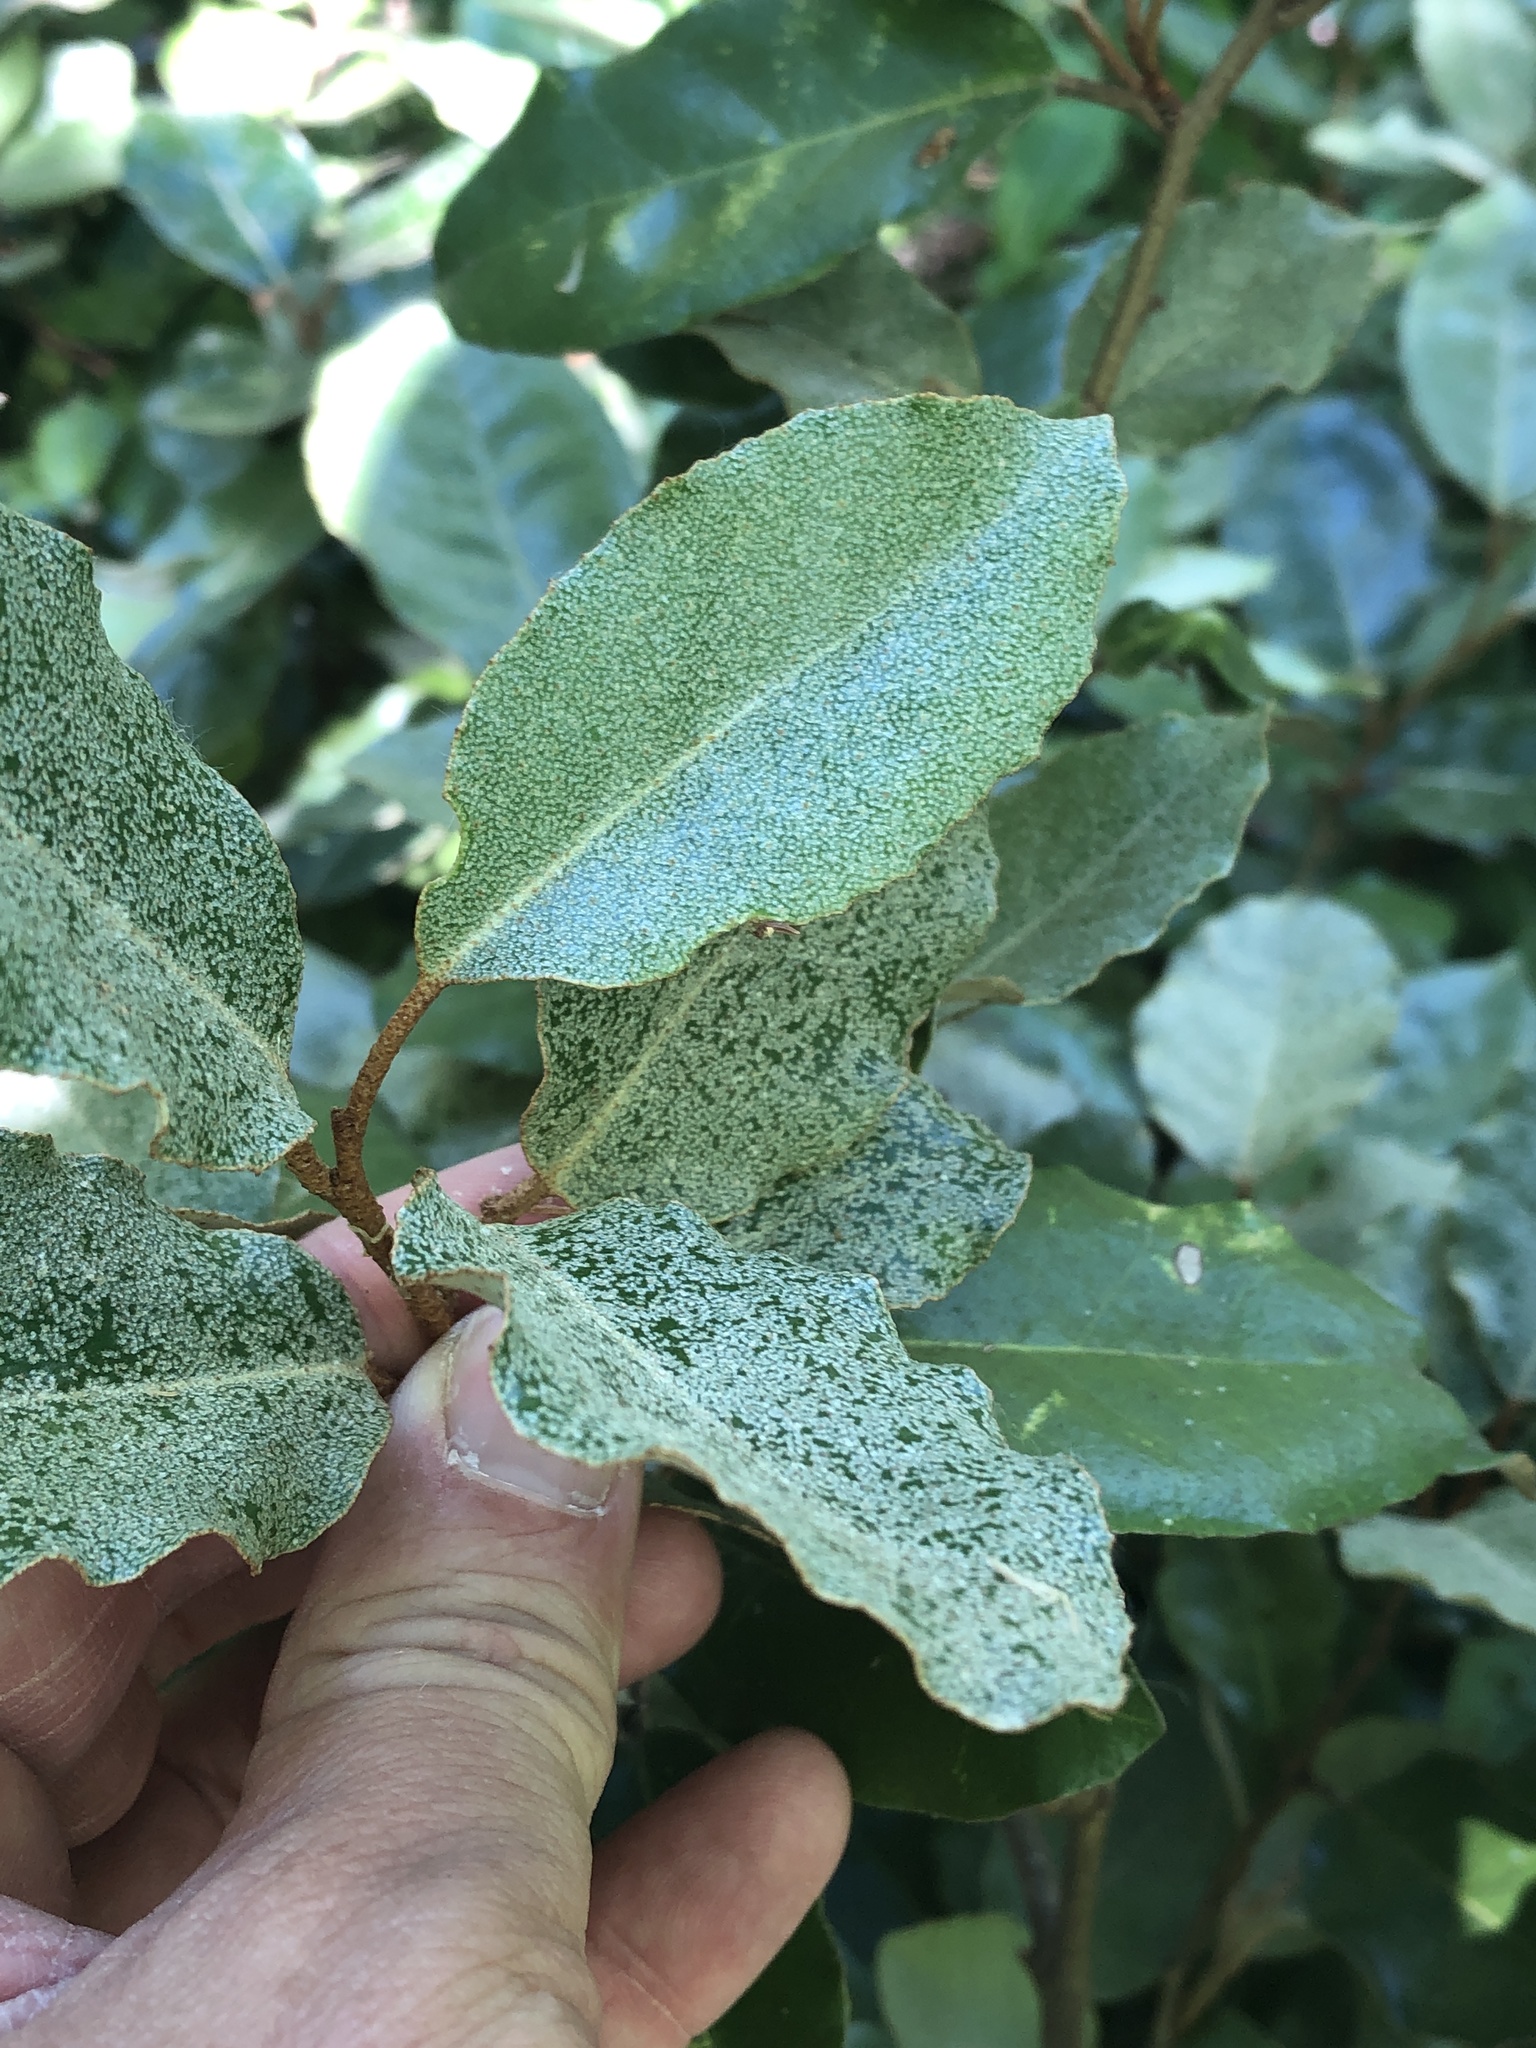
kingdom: Plantae
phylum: Tracheophyta
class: Magnoliopsida
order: Rosales
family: Elaeagnaceae
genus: Elaeagnus
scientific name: Elaeagnus pungens
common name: Spiny oleaster
